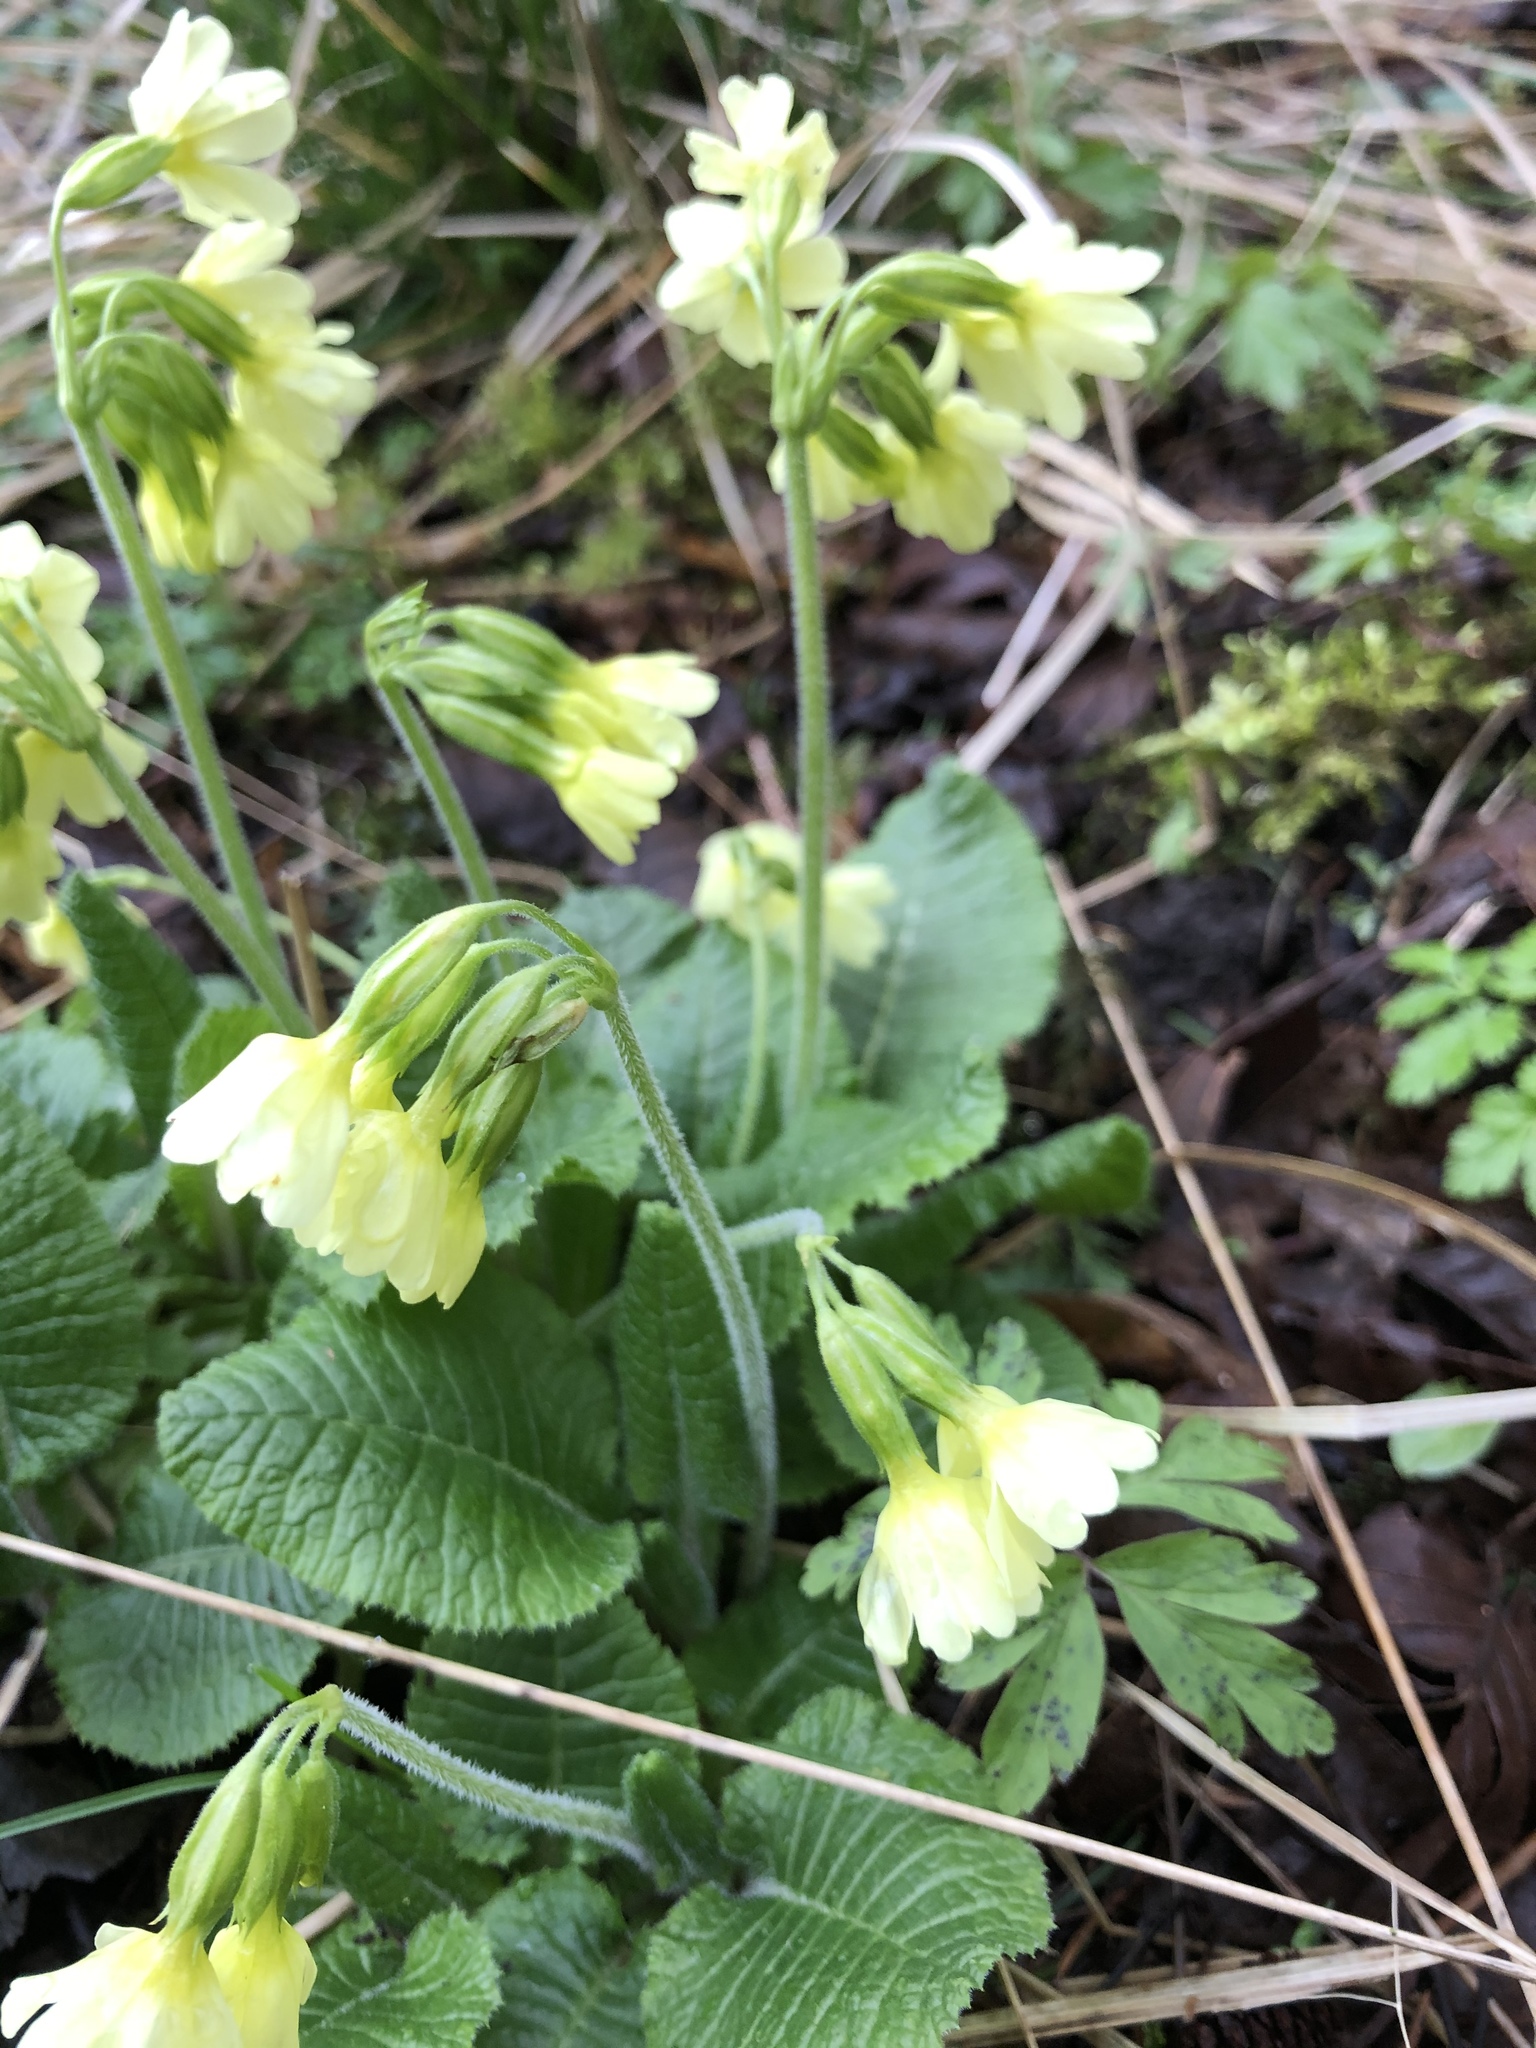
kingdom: Plantae
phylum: Tracheophyta
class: Magnoliopsida
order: Ericales
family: Primulaceae
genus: Primula
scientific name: Primula elatior
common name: Oxlip
